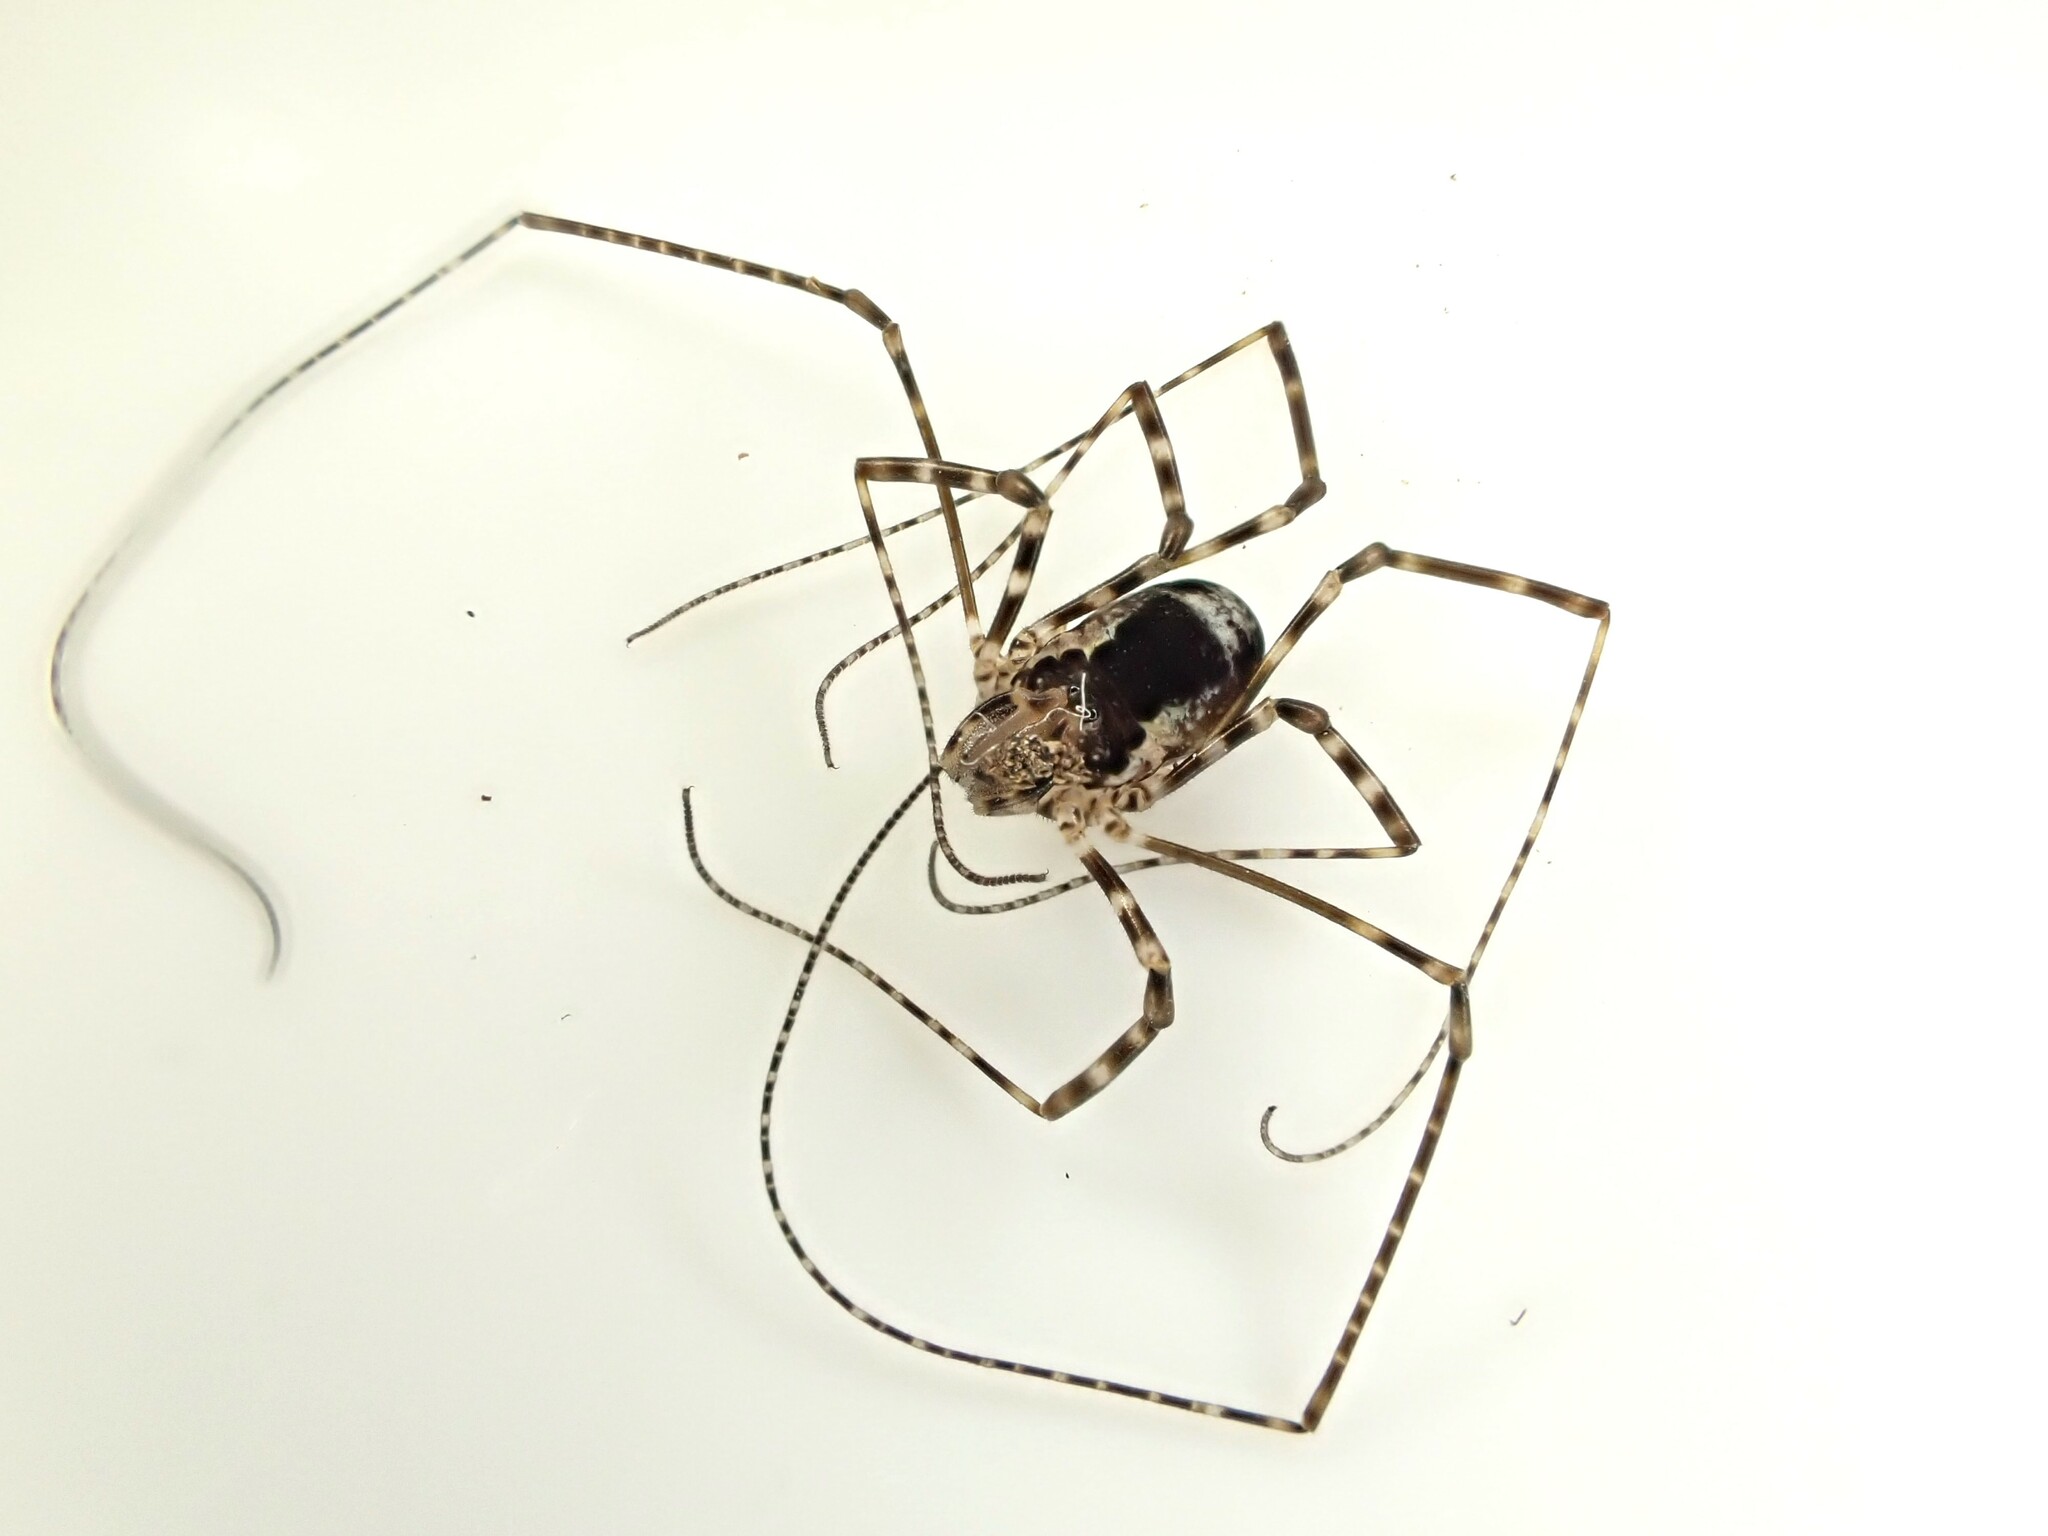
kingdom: Animalia
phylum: Arthropoda
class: Arachnida
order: Opiliones
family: Neopilionidae
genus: Megalopsalis
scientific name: Megalopsalis triascuta
